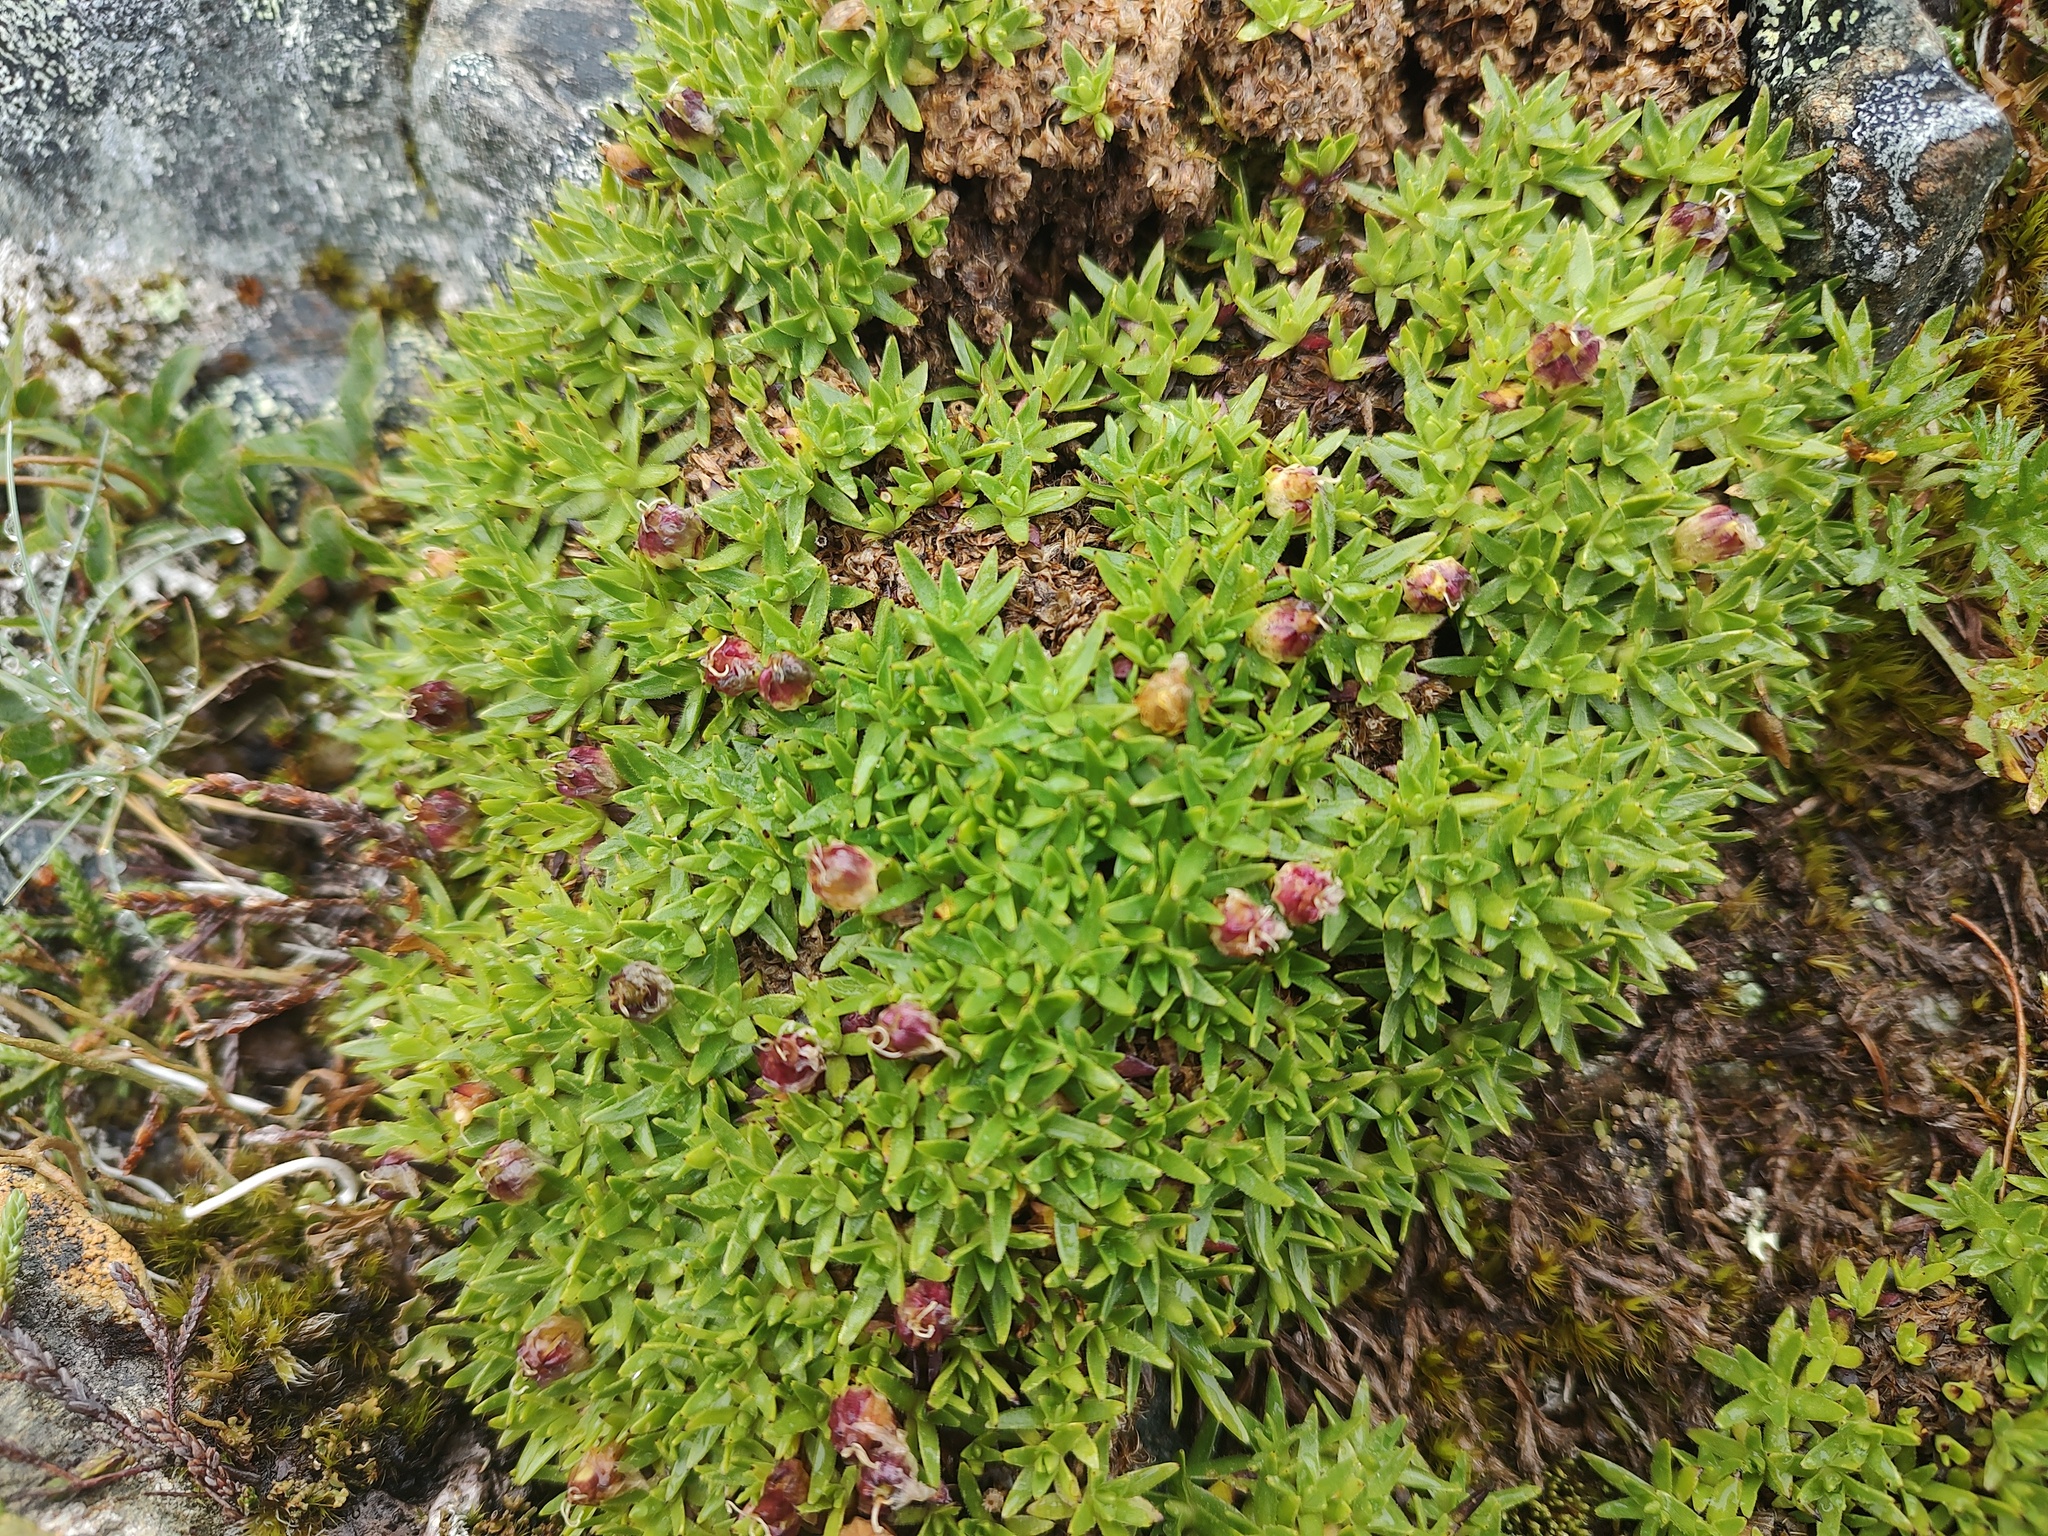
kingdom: Plantae
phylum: Tracheophyta
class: Magnoliopsida
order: Caryophyllales
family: Caryophyllaceae
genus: Silene
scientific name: Silene acaulis
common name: Moss campion
